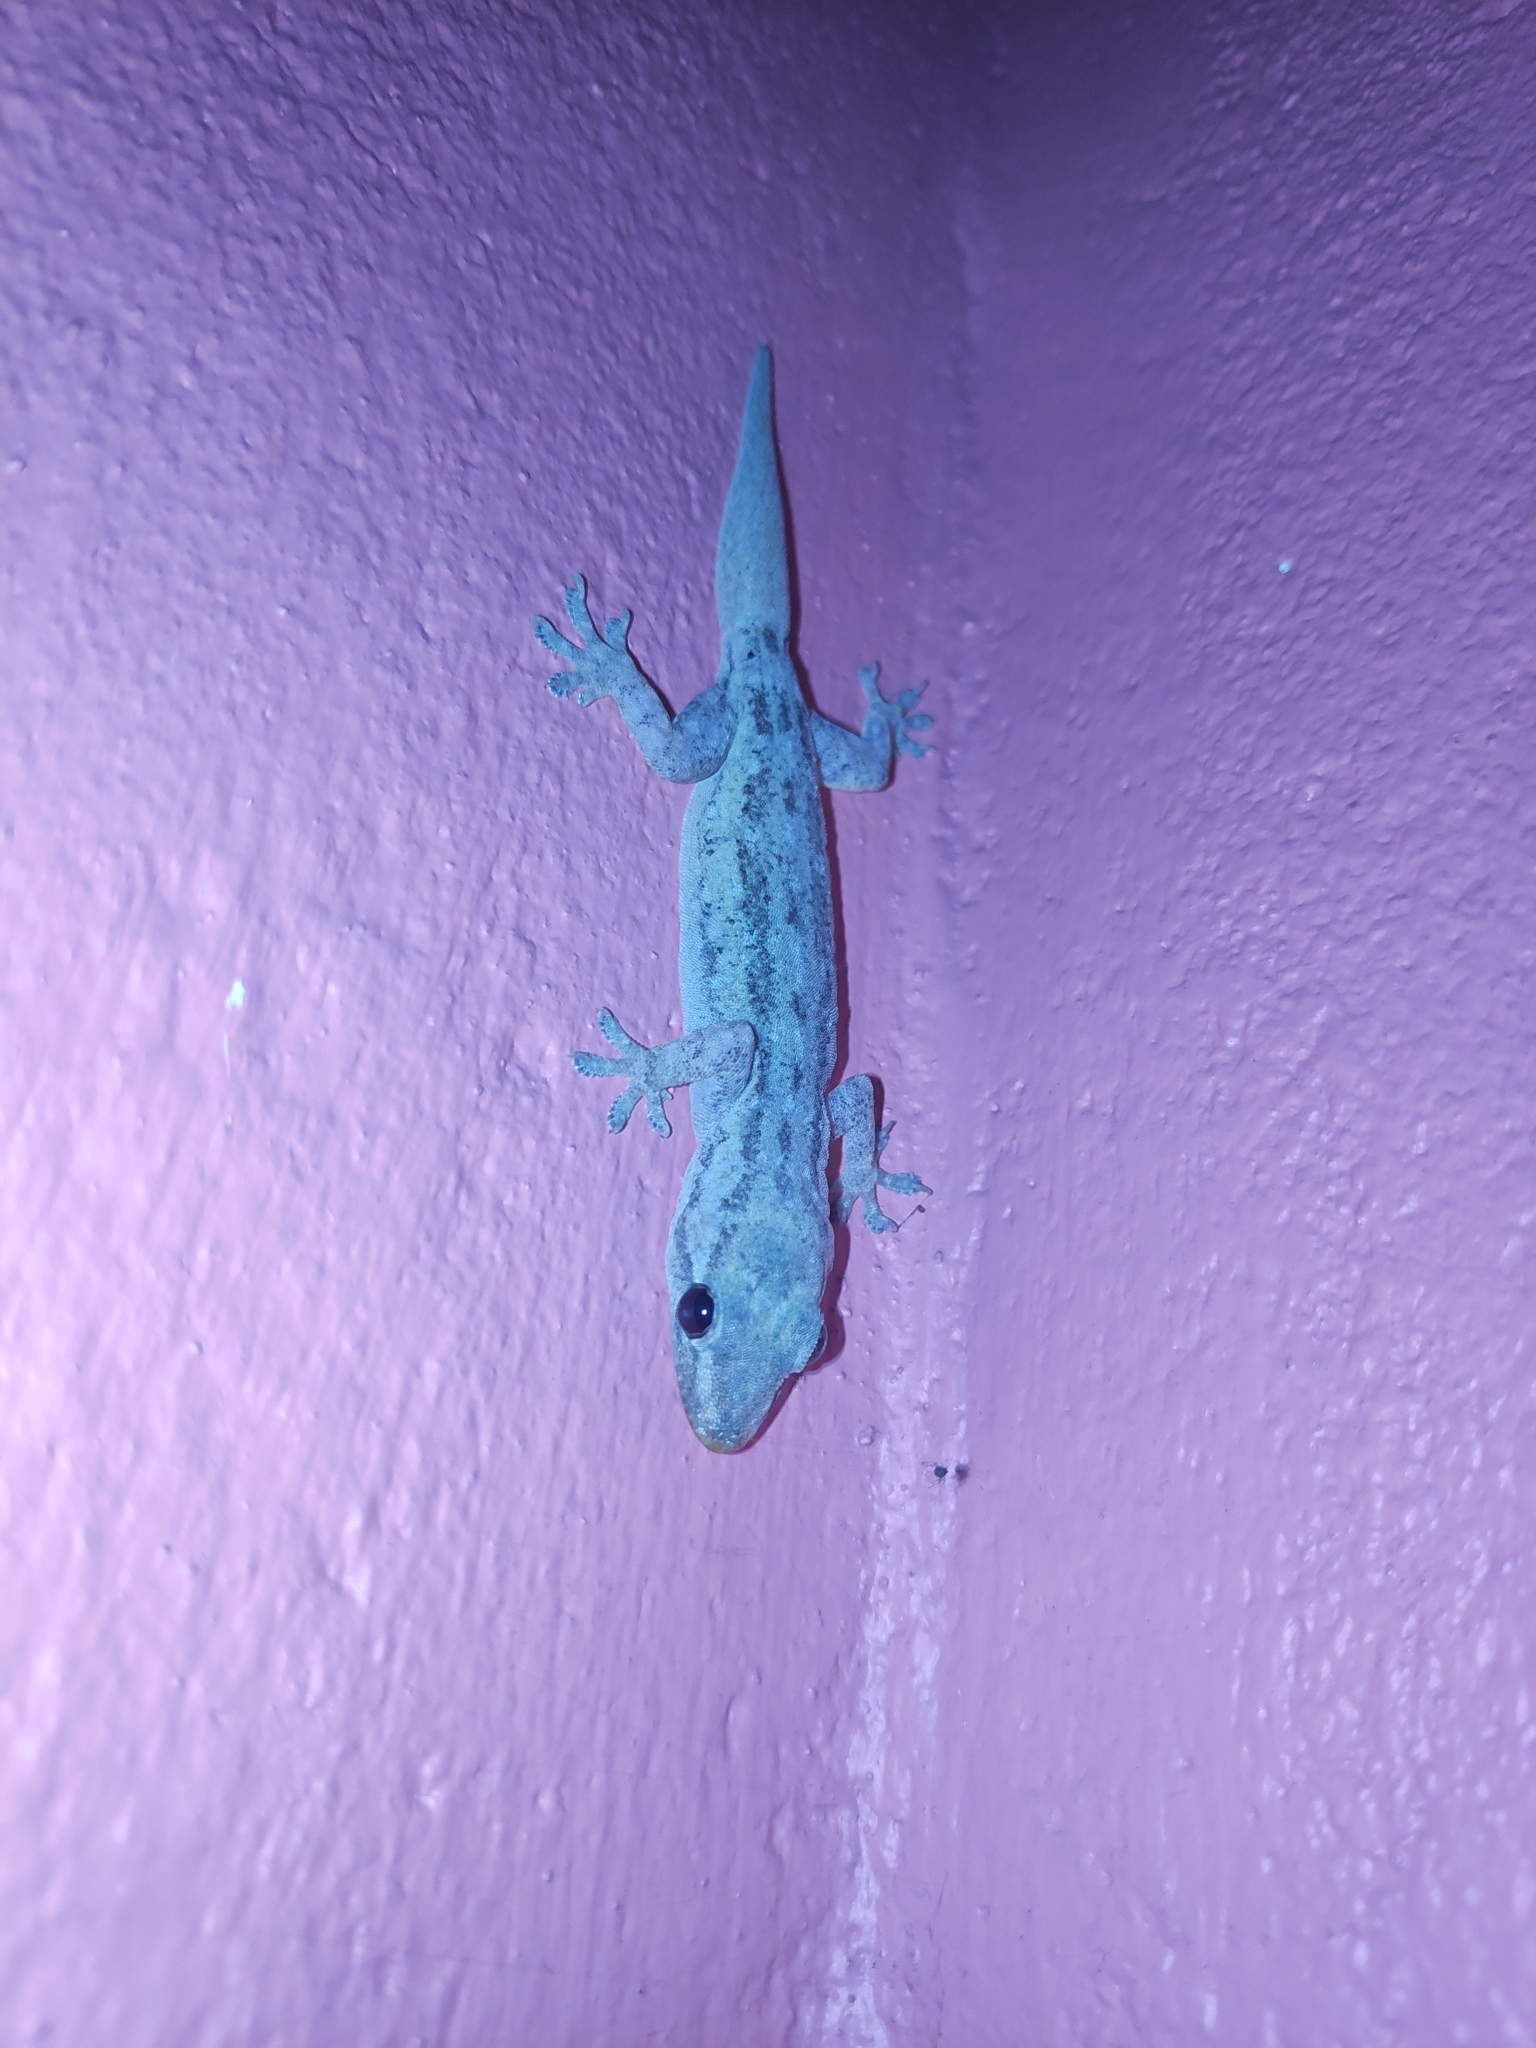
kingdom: Animalia
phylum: Chordata
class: Squamata
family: Gekkonidae
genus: Hemidactylus
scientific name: Hemidactylus frenatus
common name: Common house gecko
